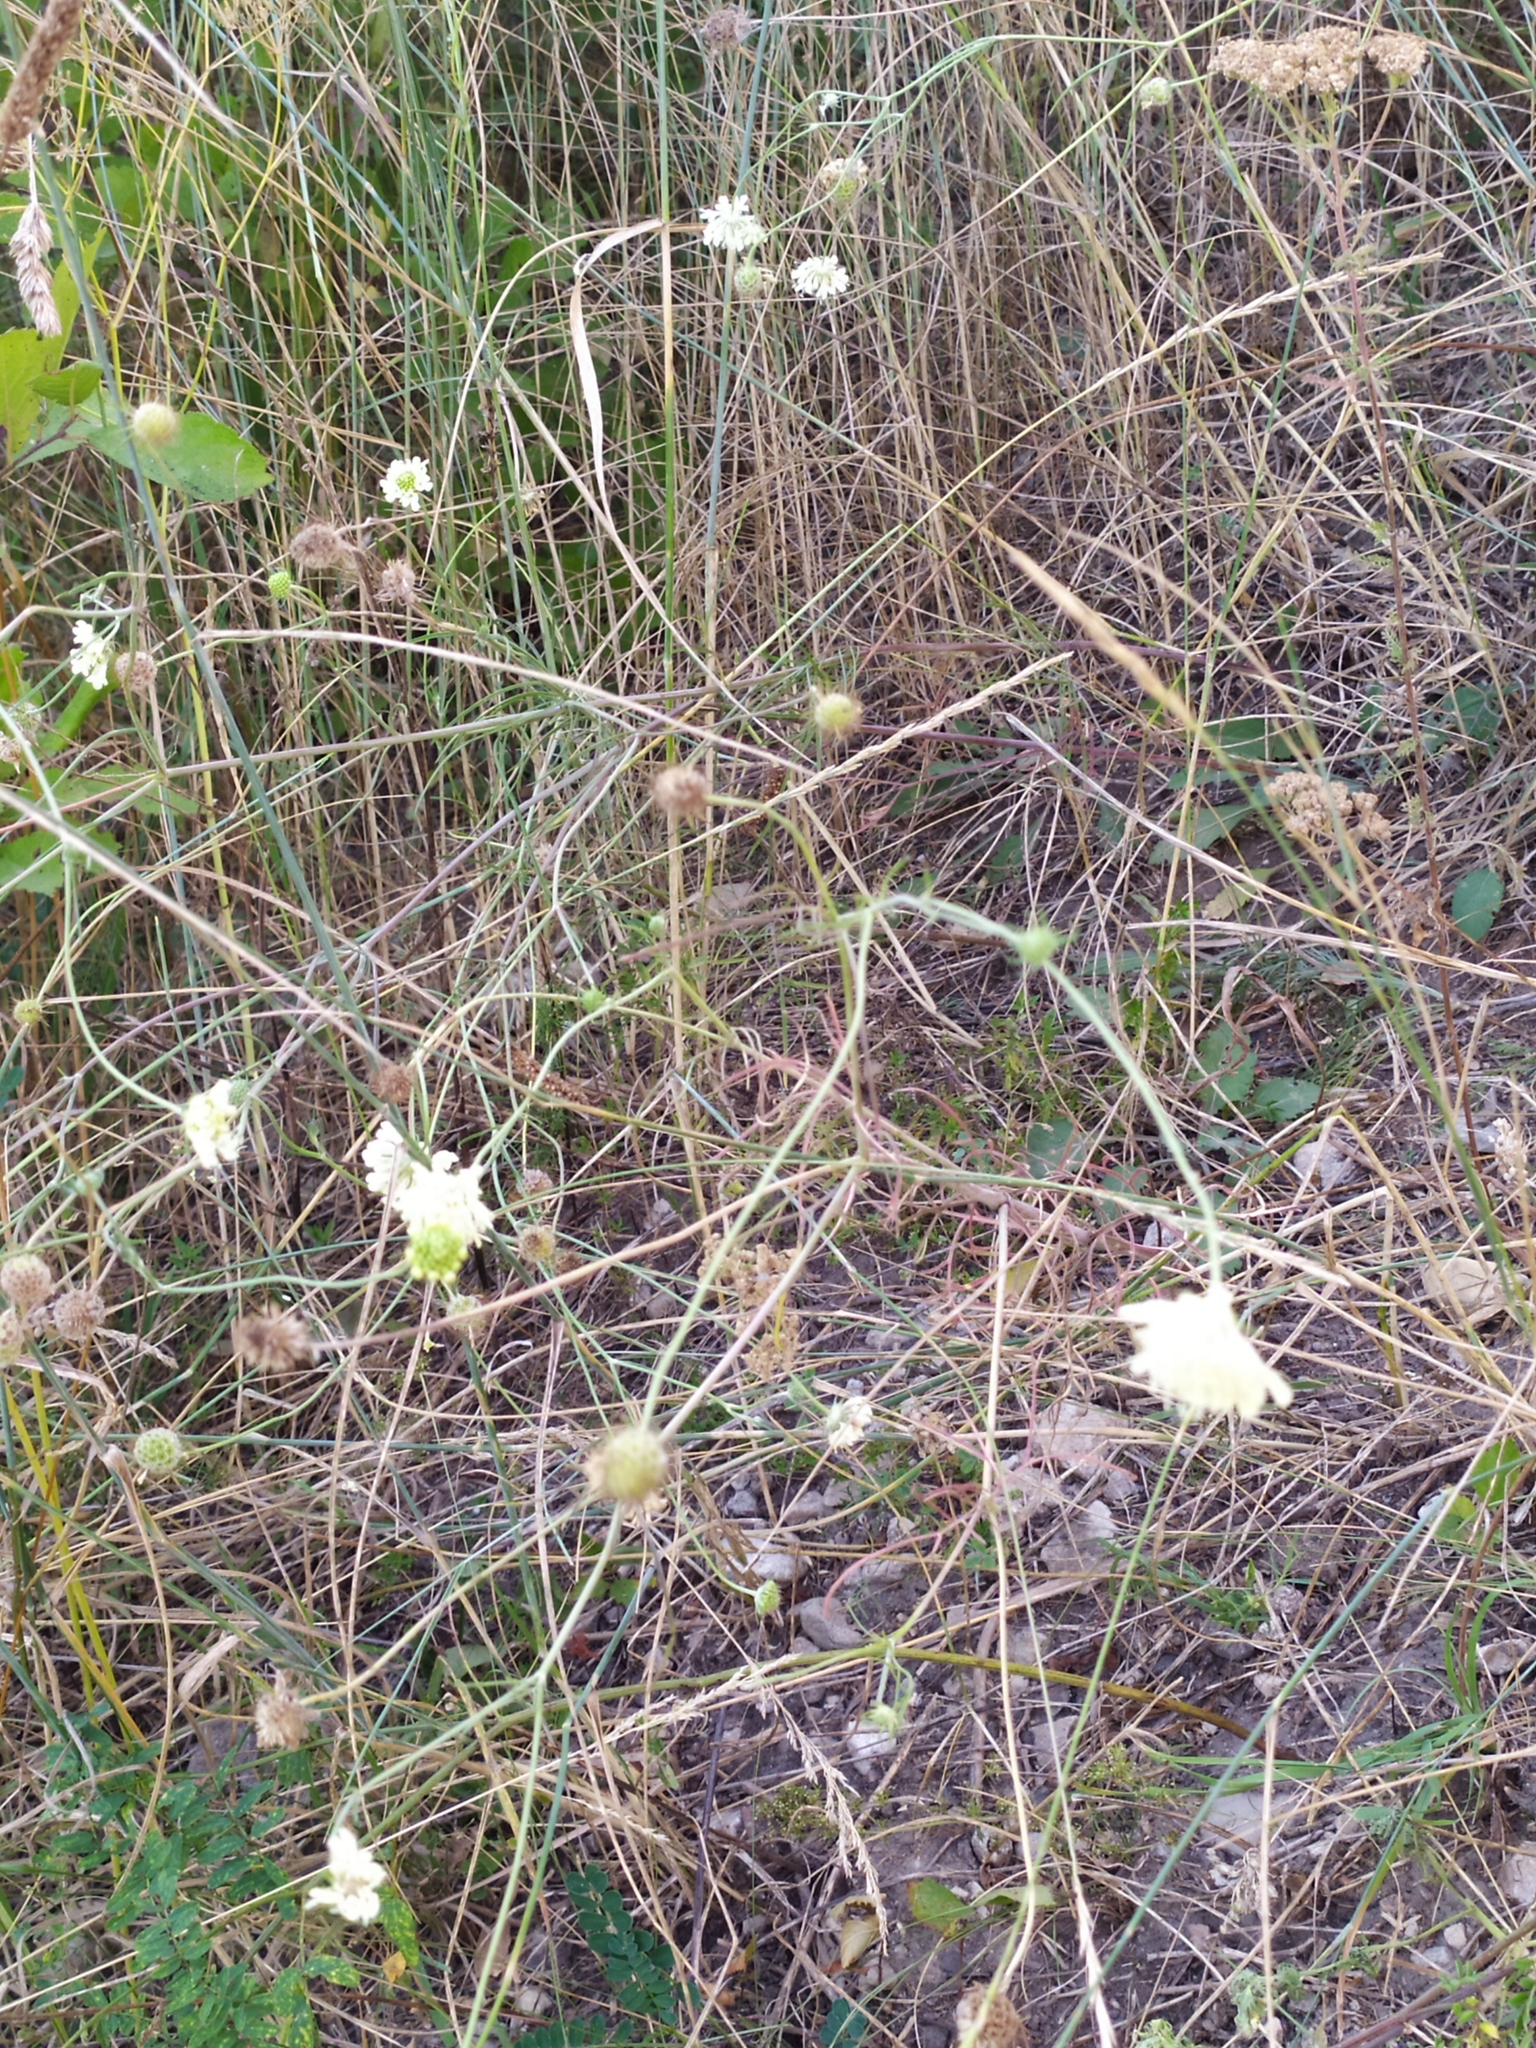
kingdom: Plantae
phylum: Tracheophyta
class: Magnoliopsida
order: Dipsacales
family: Caprifoliaceae
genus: Scabiosa
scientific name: Scabiosa ochroleuca
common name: Cream pincushions
